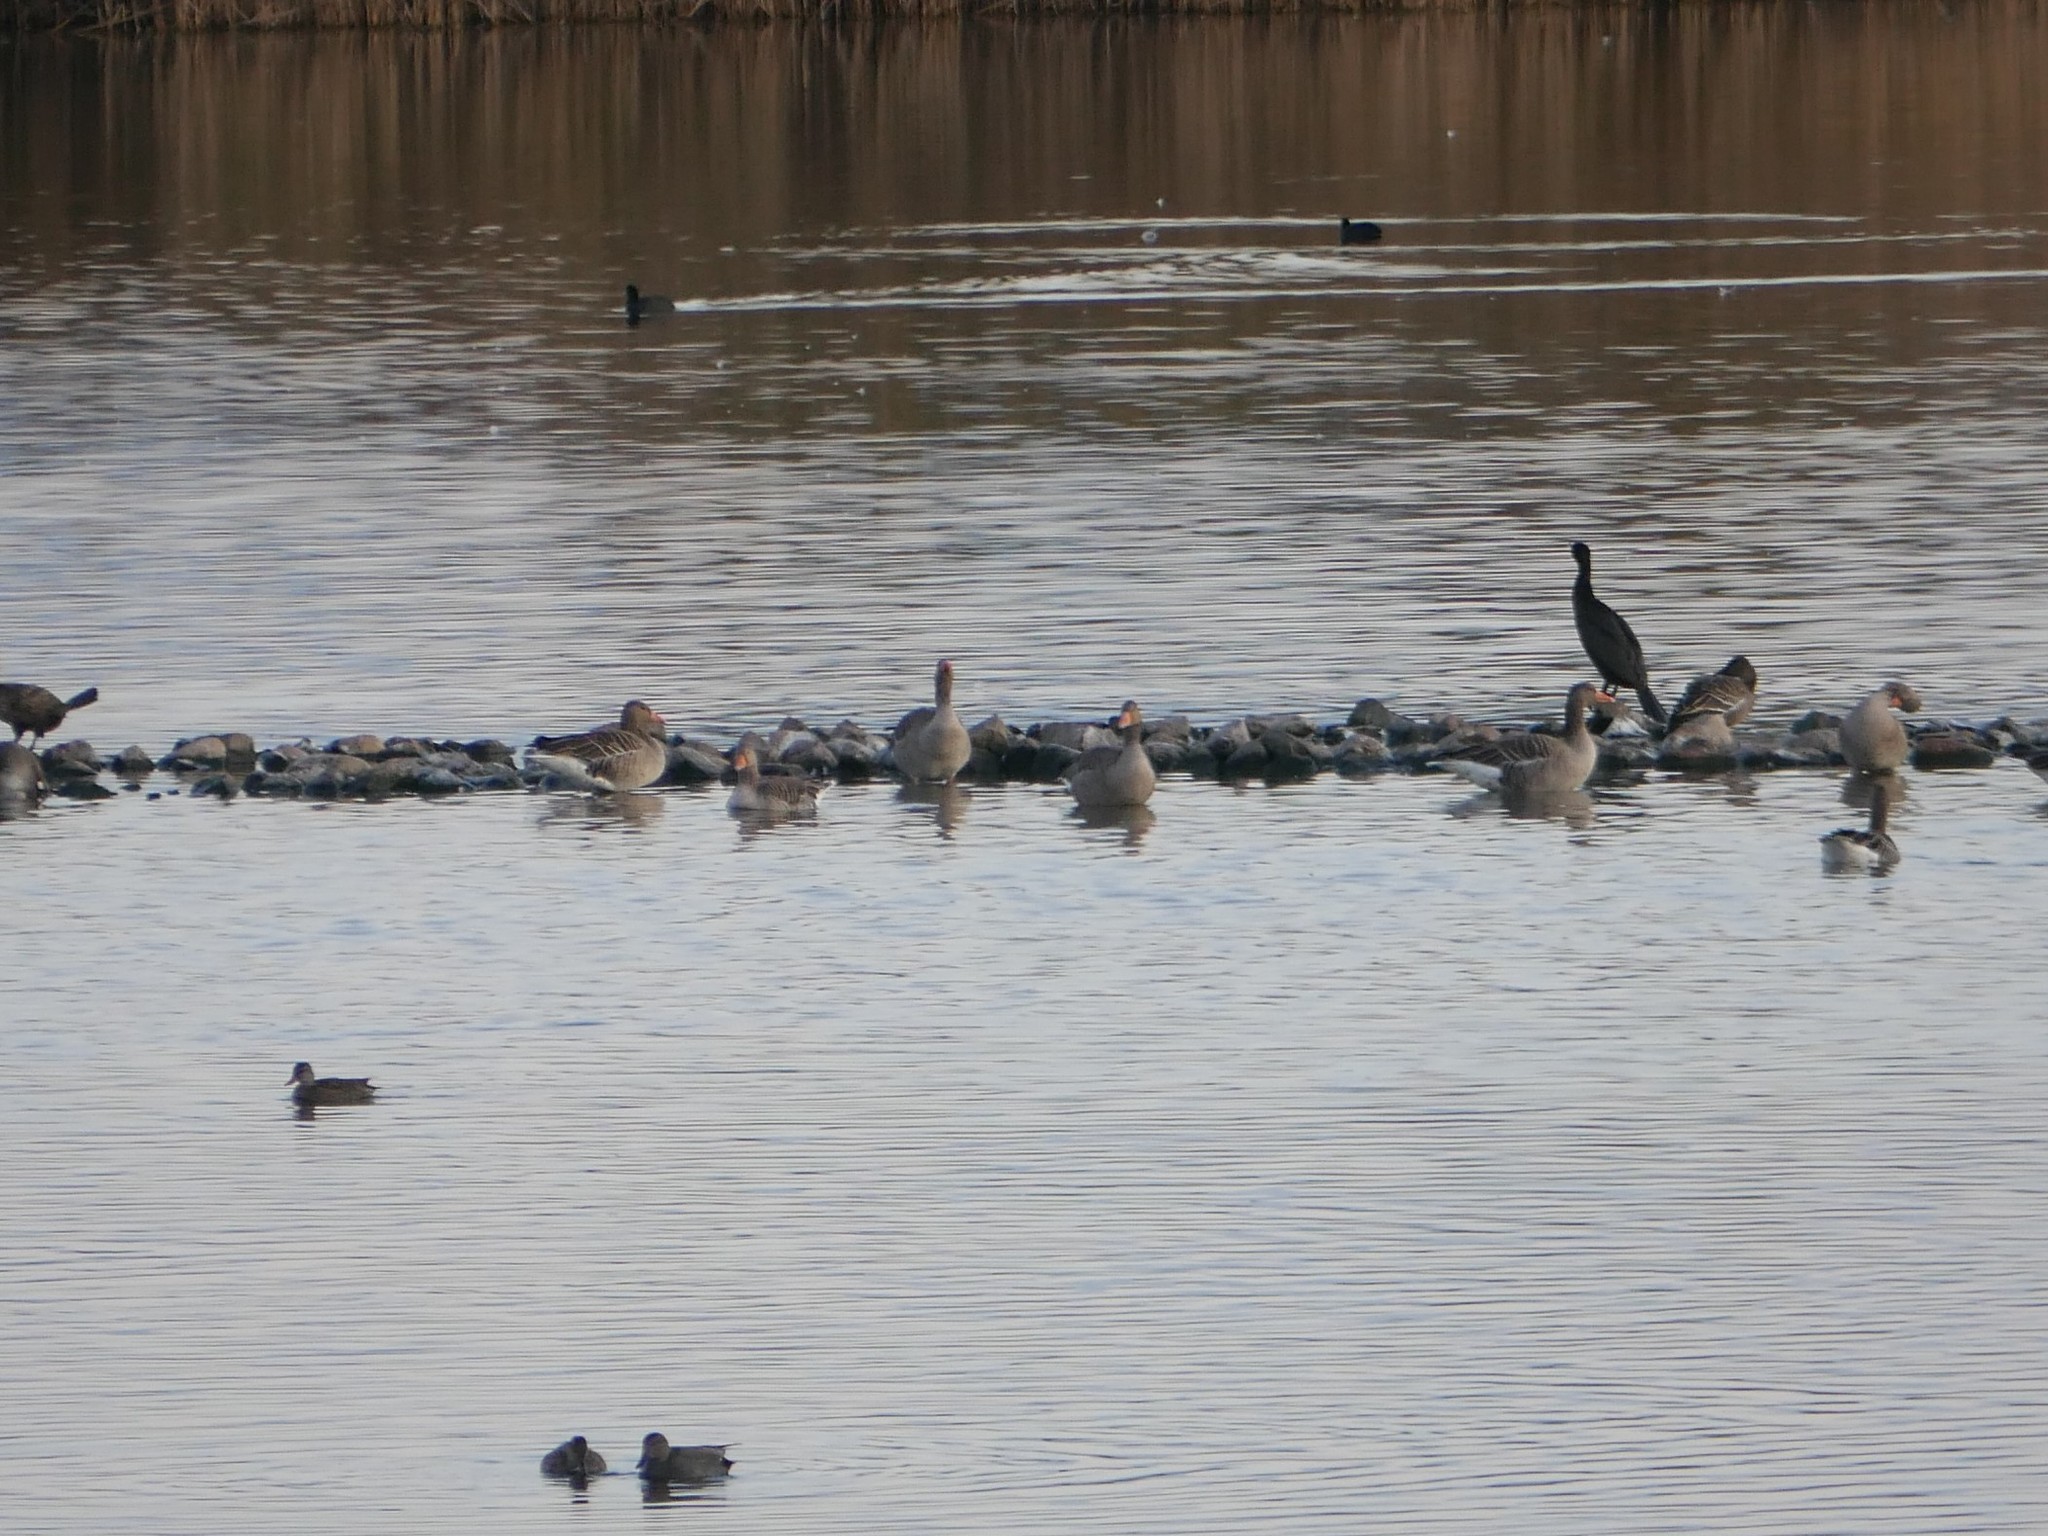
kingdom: Animalia
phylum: Chordata
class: Aves
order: Anseriformes
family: Anatidae
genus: Anser
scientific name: Anser anser
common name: Greylag goose
